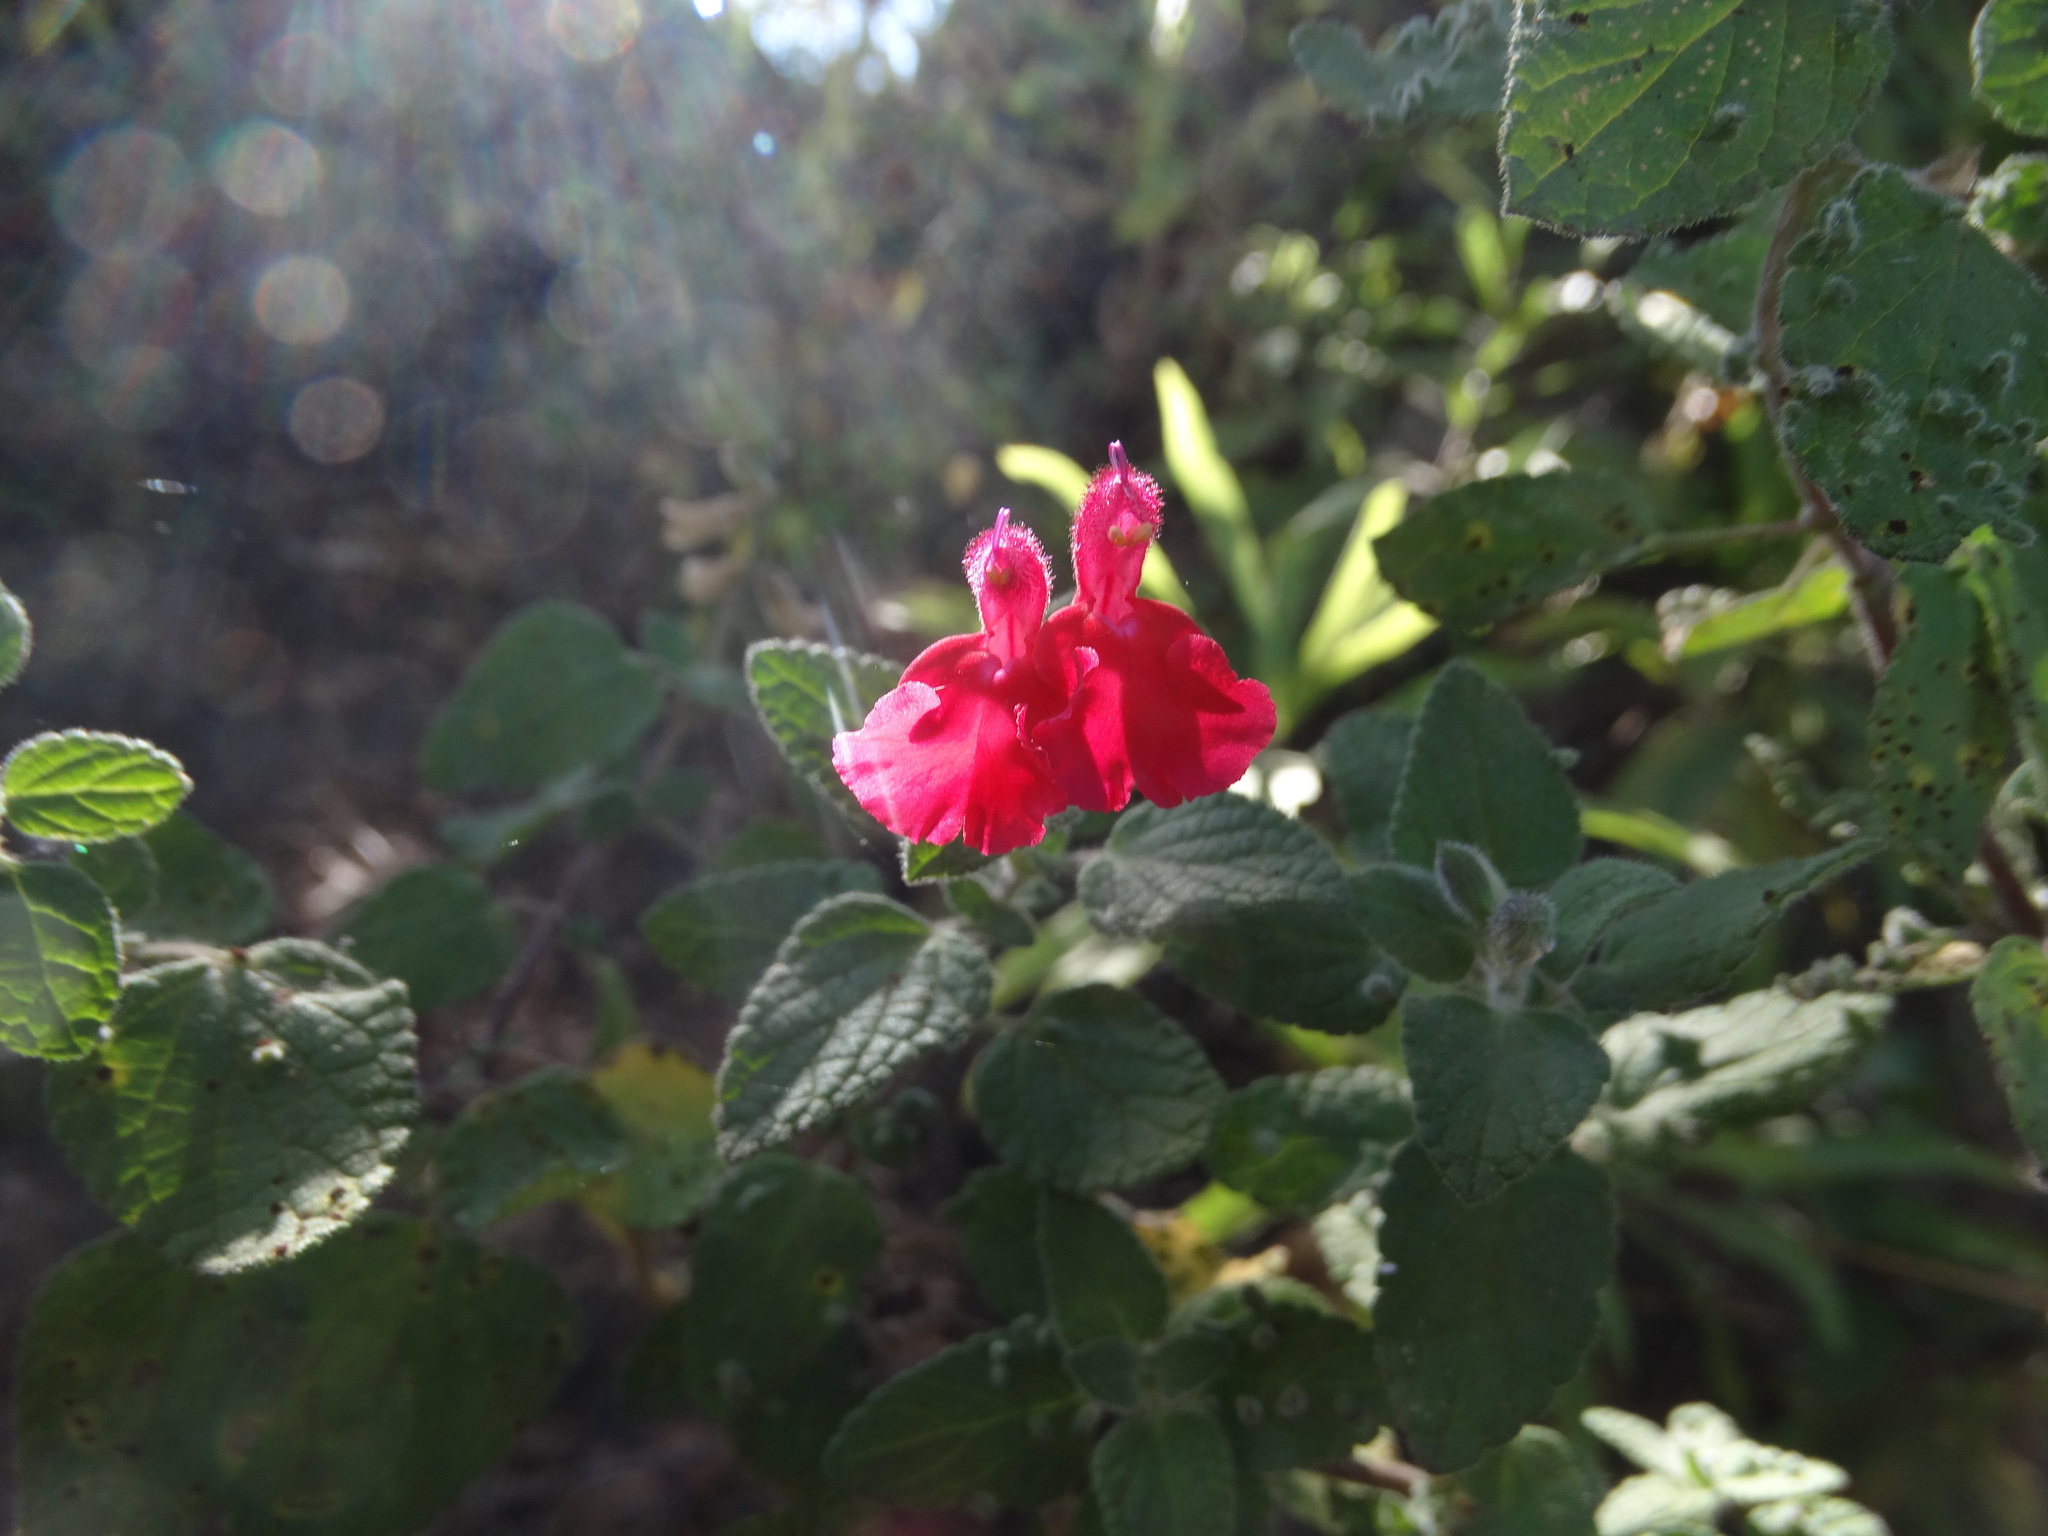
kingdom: Plantae
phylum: Tracheophyta
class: Magnoliopsida
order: Lamiales
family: Lamiaceae
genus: Salvia
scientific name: Salvia microphylla
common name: Baby sage
